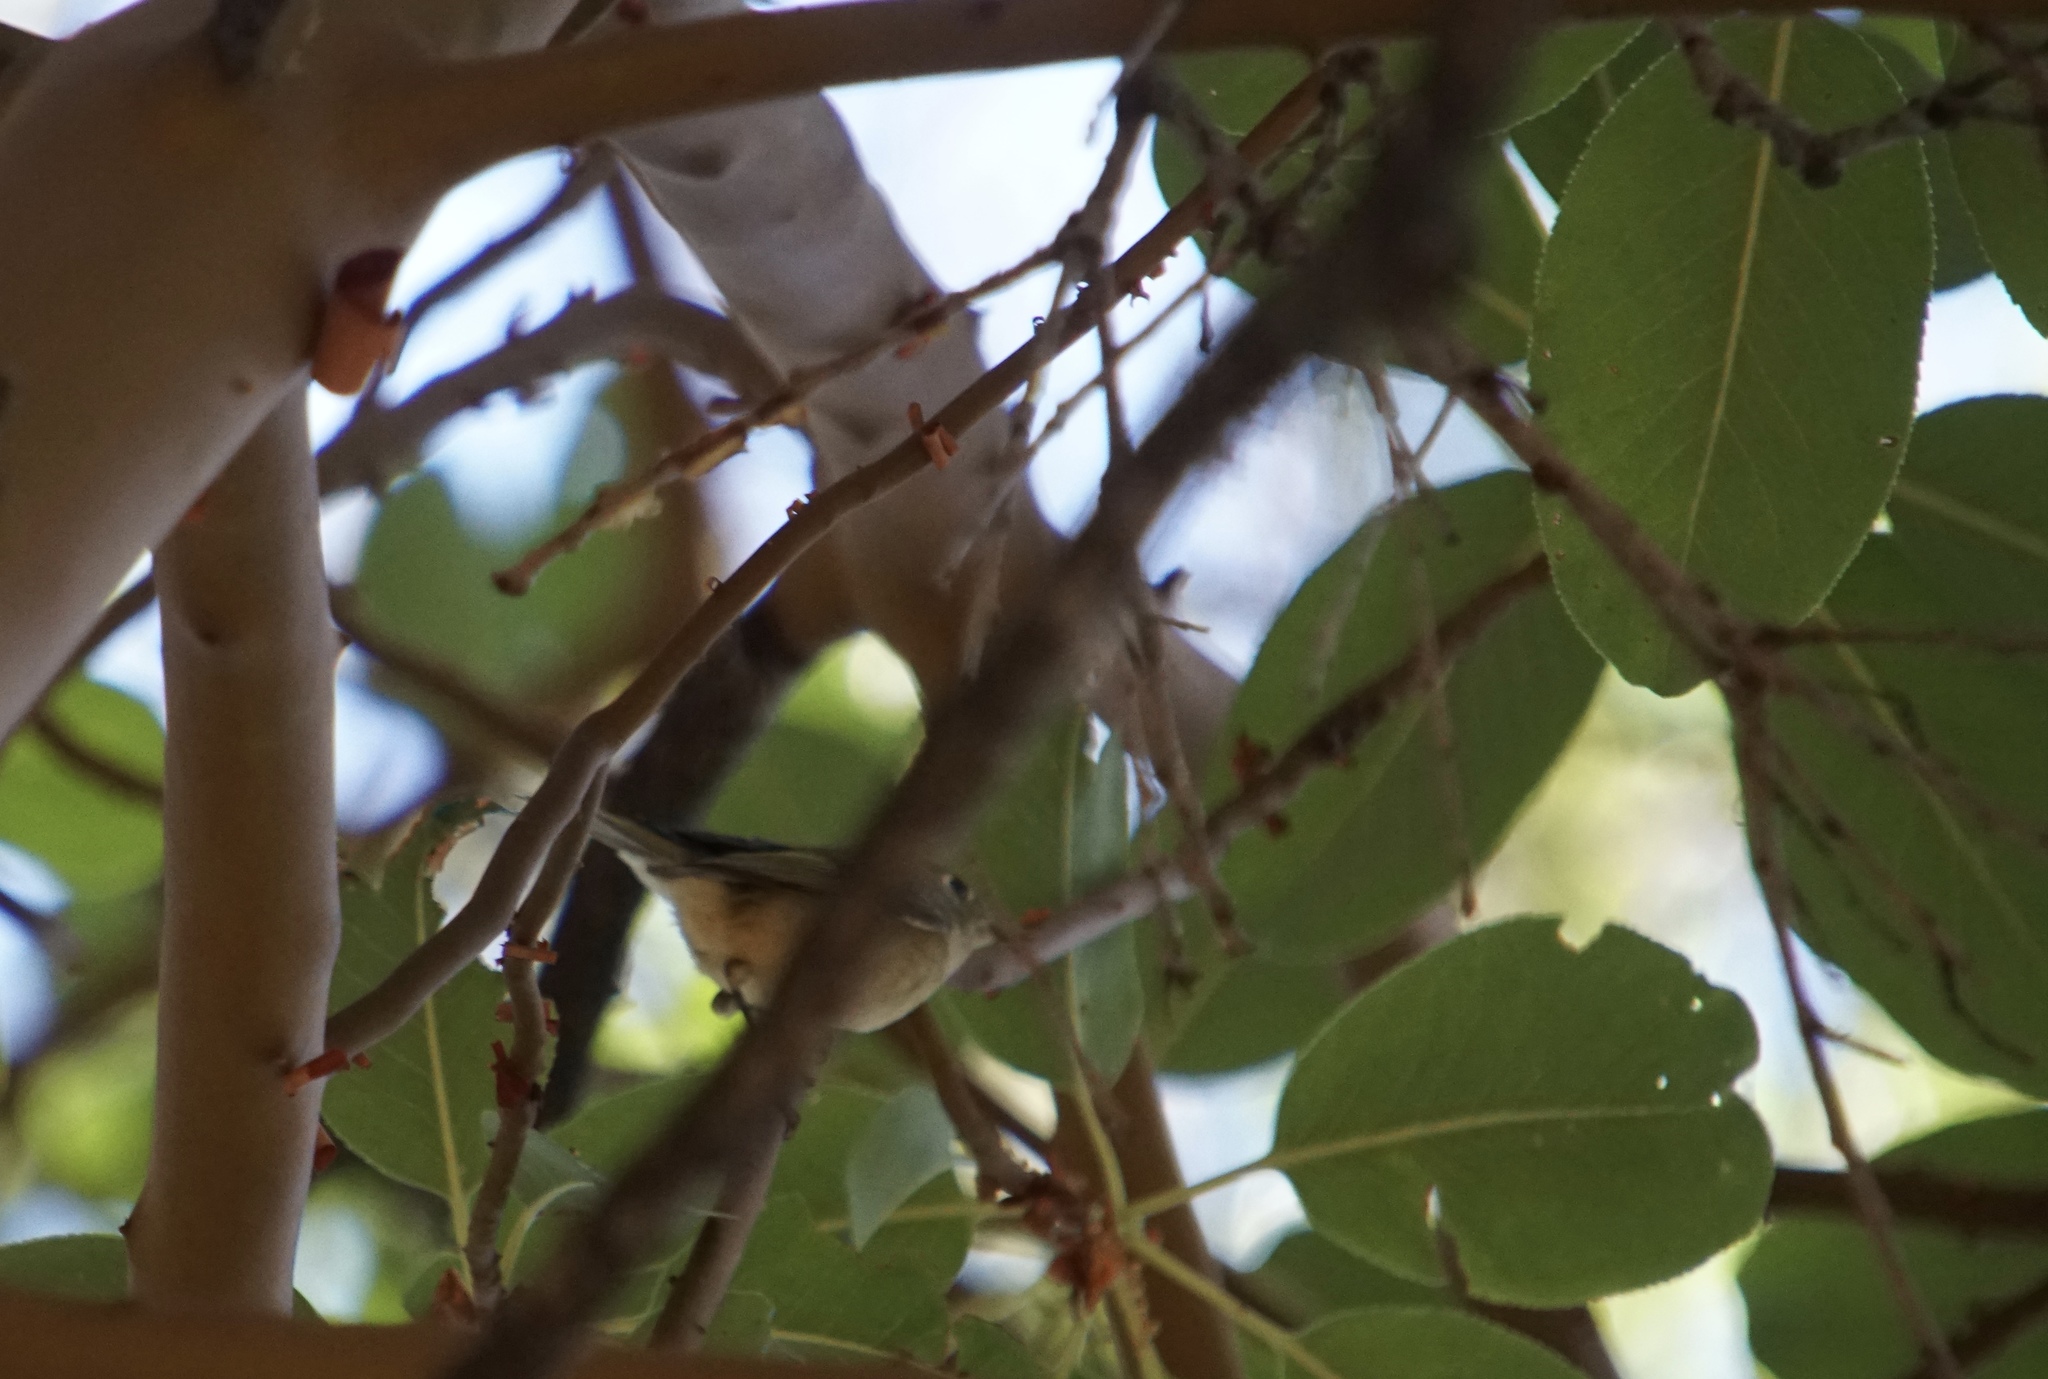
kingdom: Animalia
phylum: Chordata
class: Aves
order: Passeriformes
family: Regulidae
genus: Regulus
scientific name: Regulus calendula
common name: Ruby-crowned kinglet
